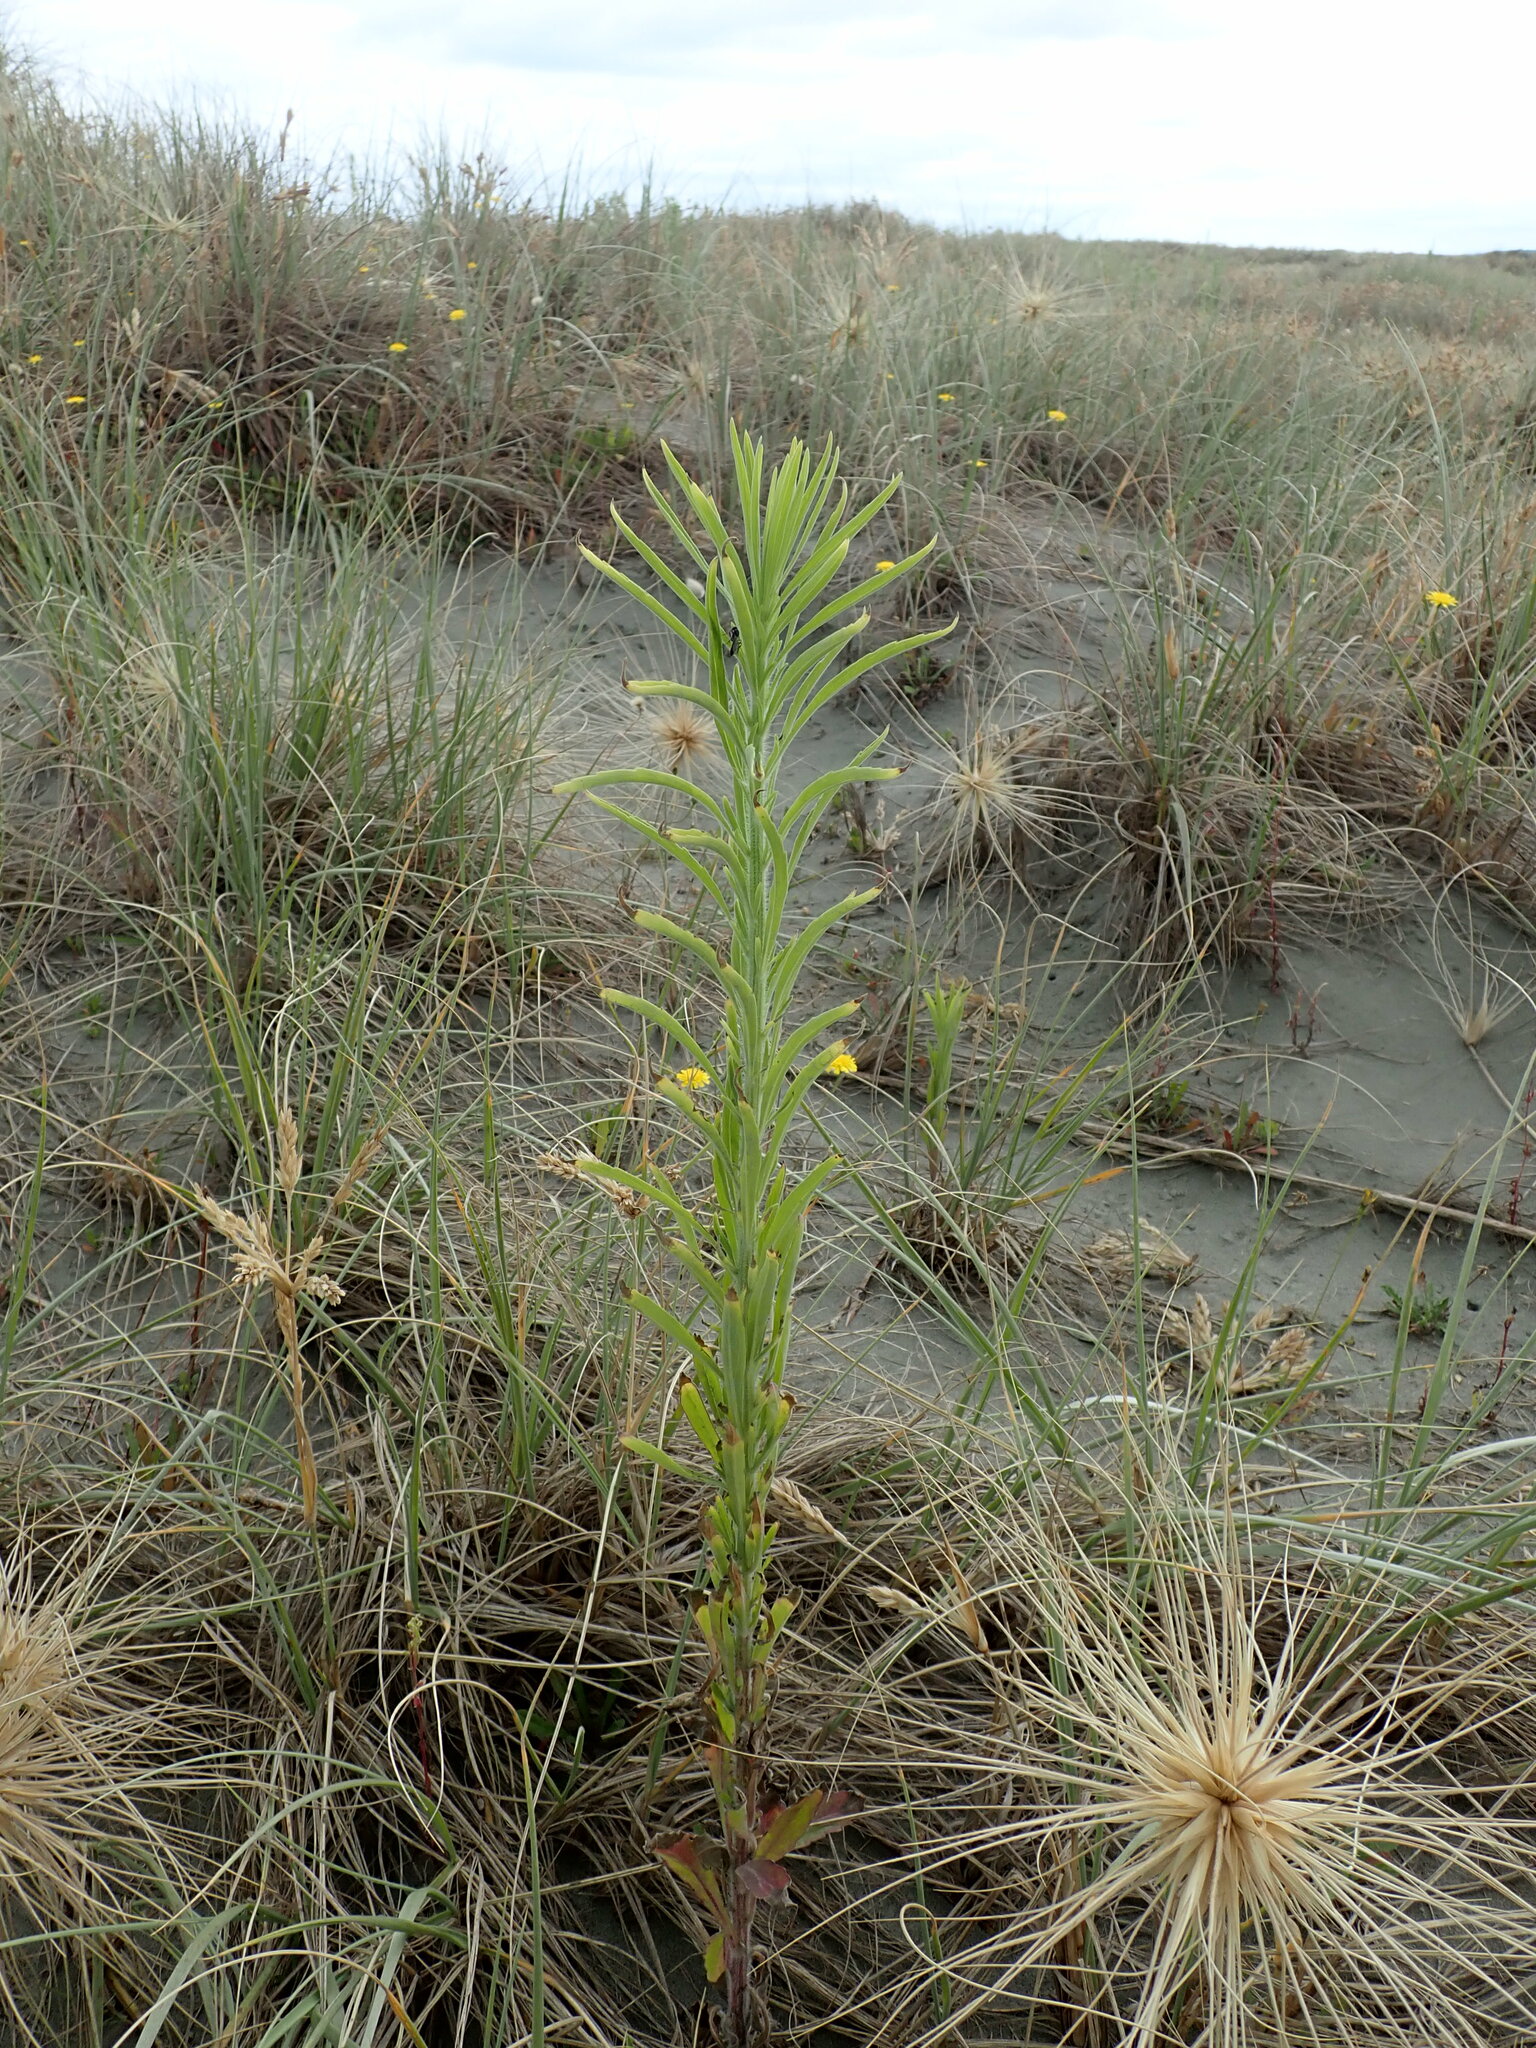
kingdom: Animalia
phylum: Arthropoda
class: Insecta
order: Hymenoptera
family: Formicidae
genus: Amblyopone
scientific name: Amblyopone australis
